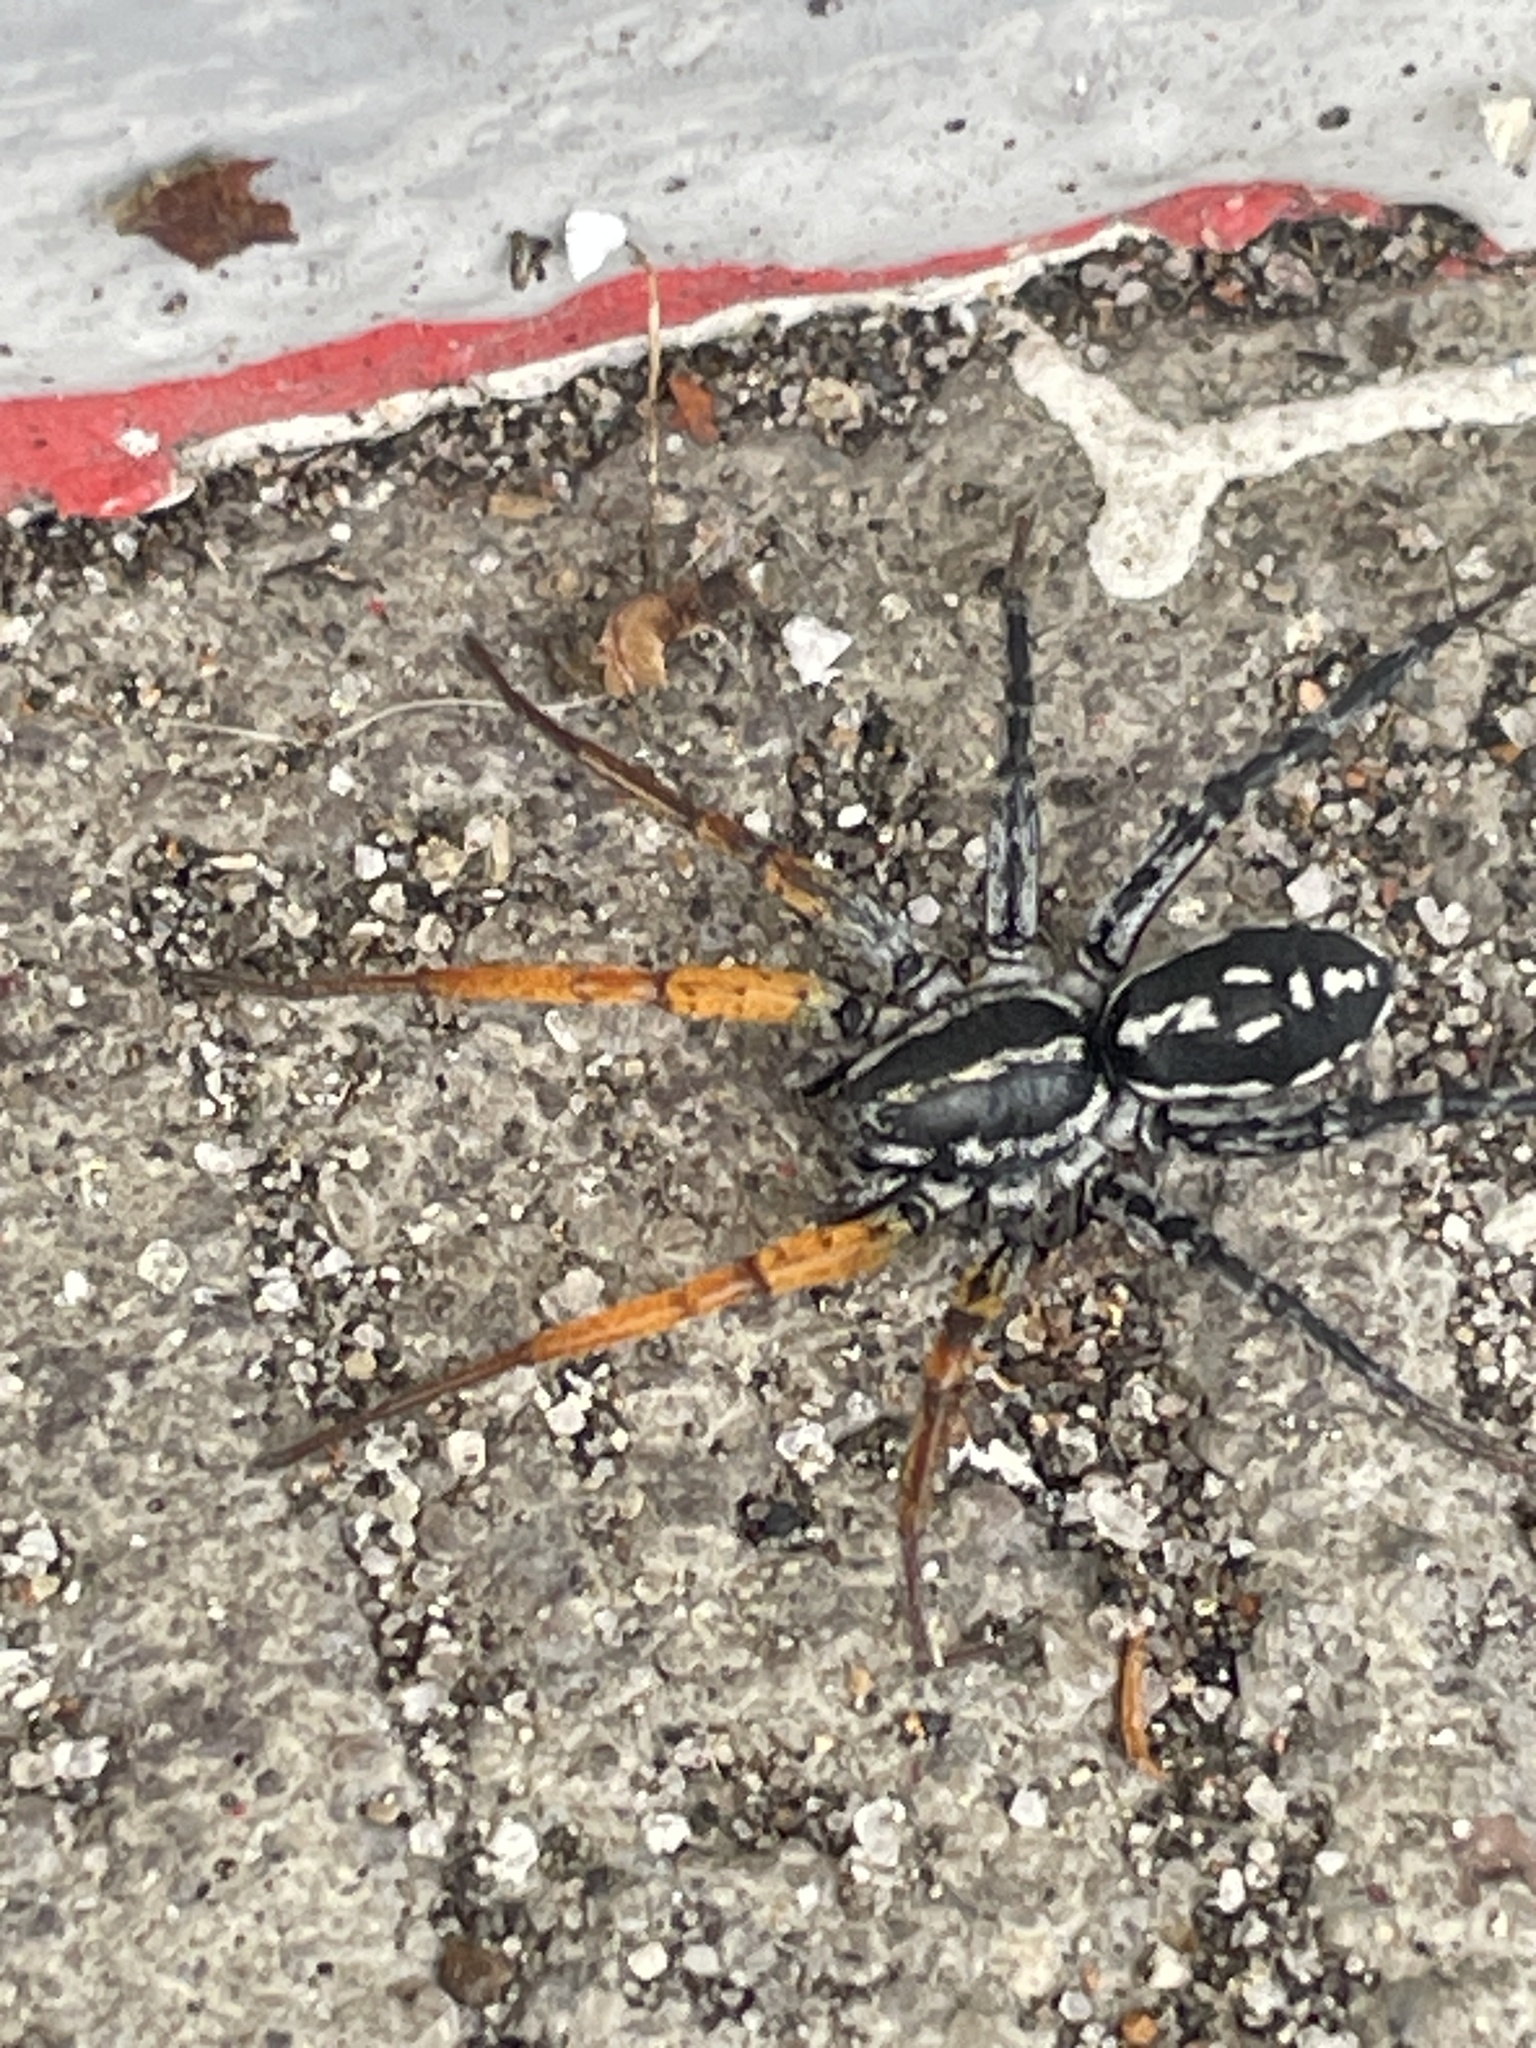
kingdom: Animalia
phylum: Arthropoda
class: Arachnida
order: Araneae
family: Corinnidae
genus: Nyssus
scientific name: Nyssus coloripes
